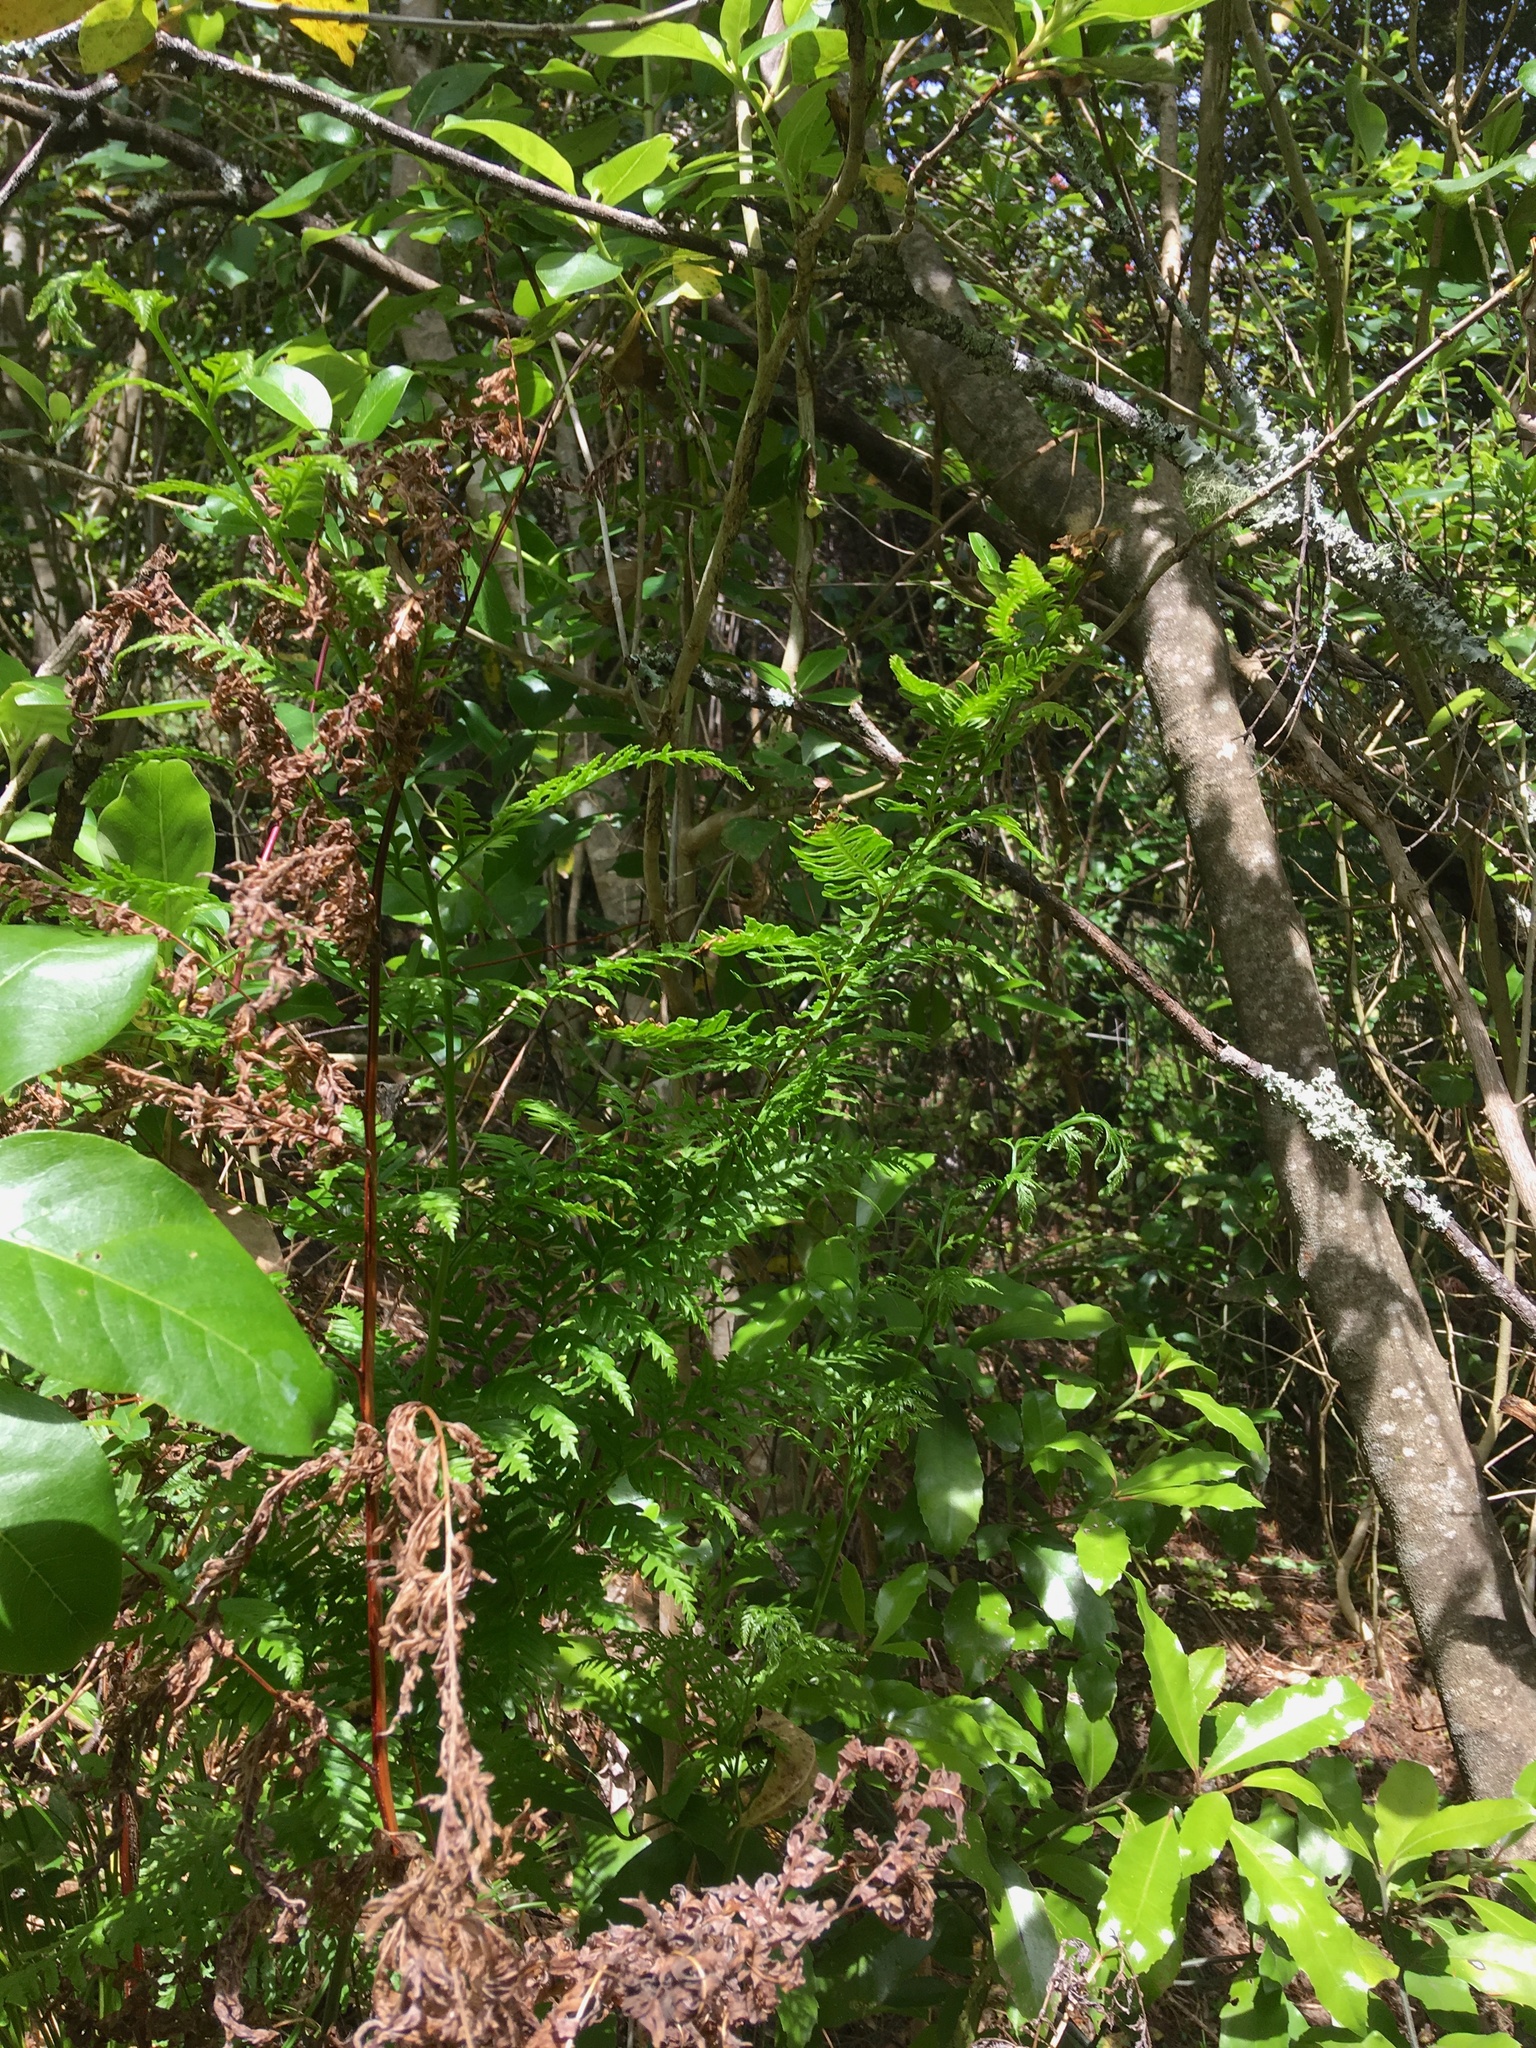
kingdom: Plantae
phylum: Tracheophyta
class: Polypodiopsida
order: Polypodiales
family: Pteridaceae
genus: Pteris
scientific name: Pteris tremula
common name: Australian brake
